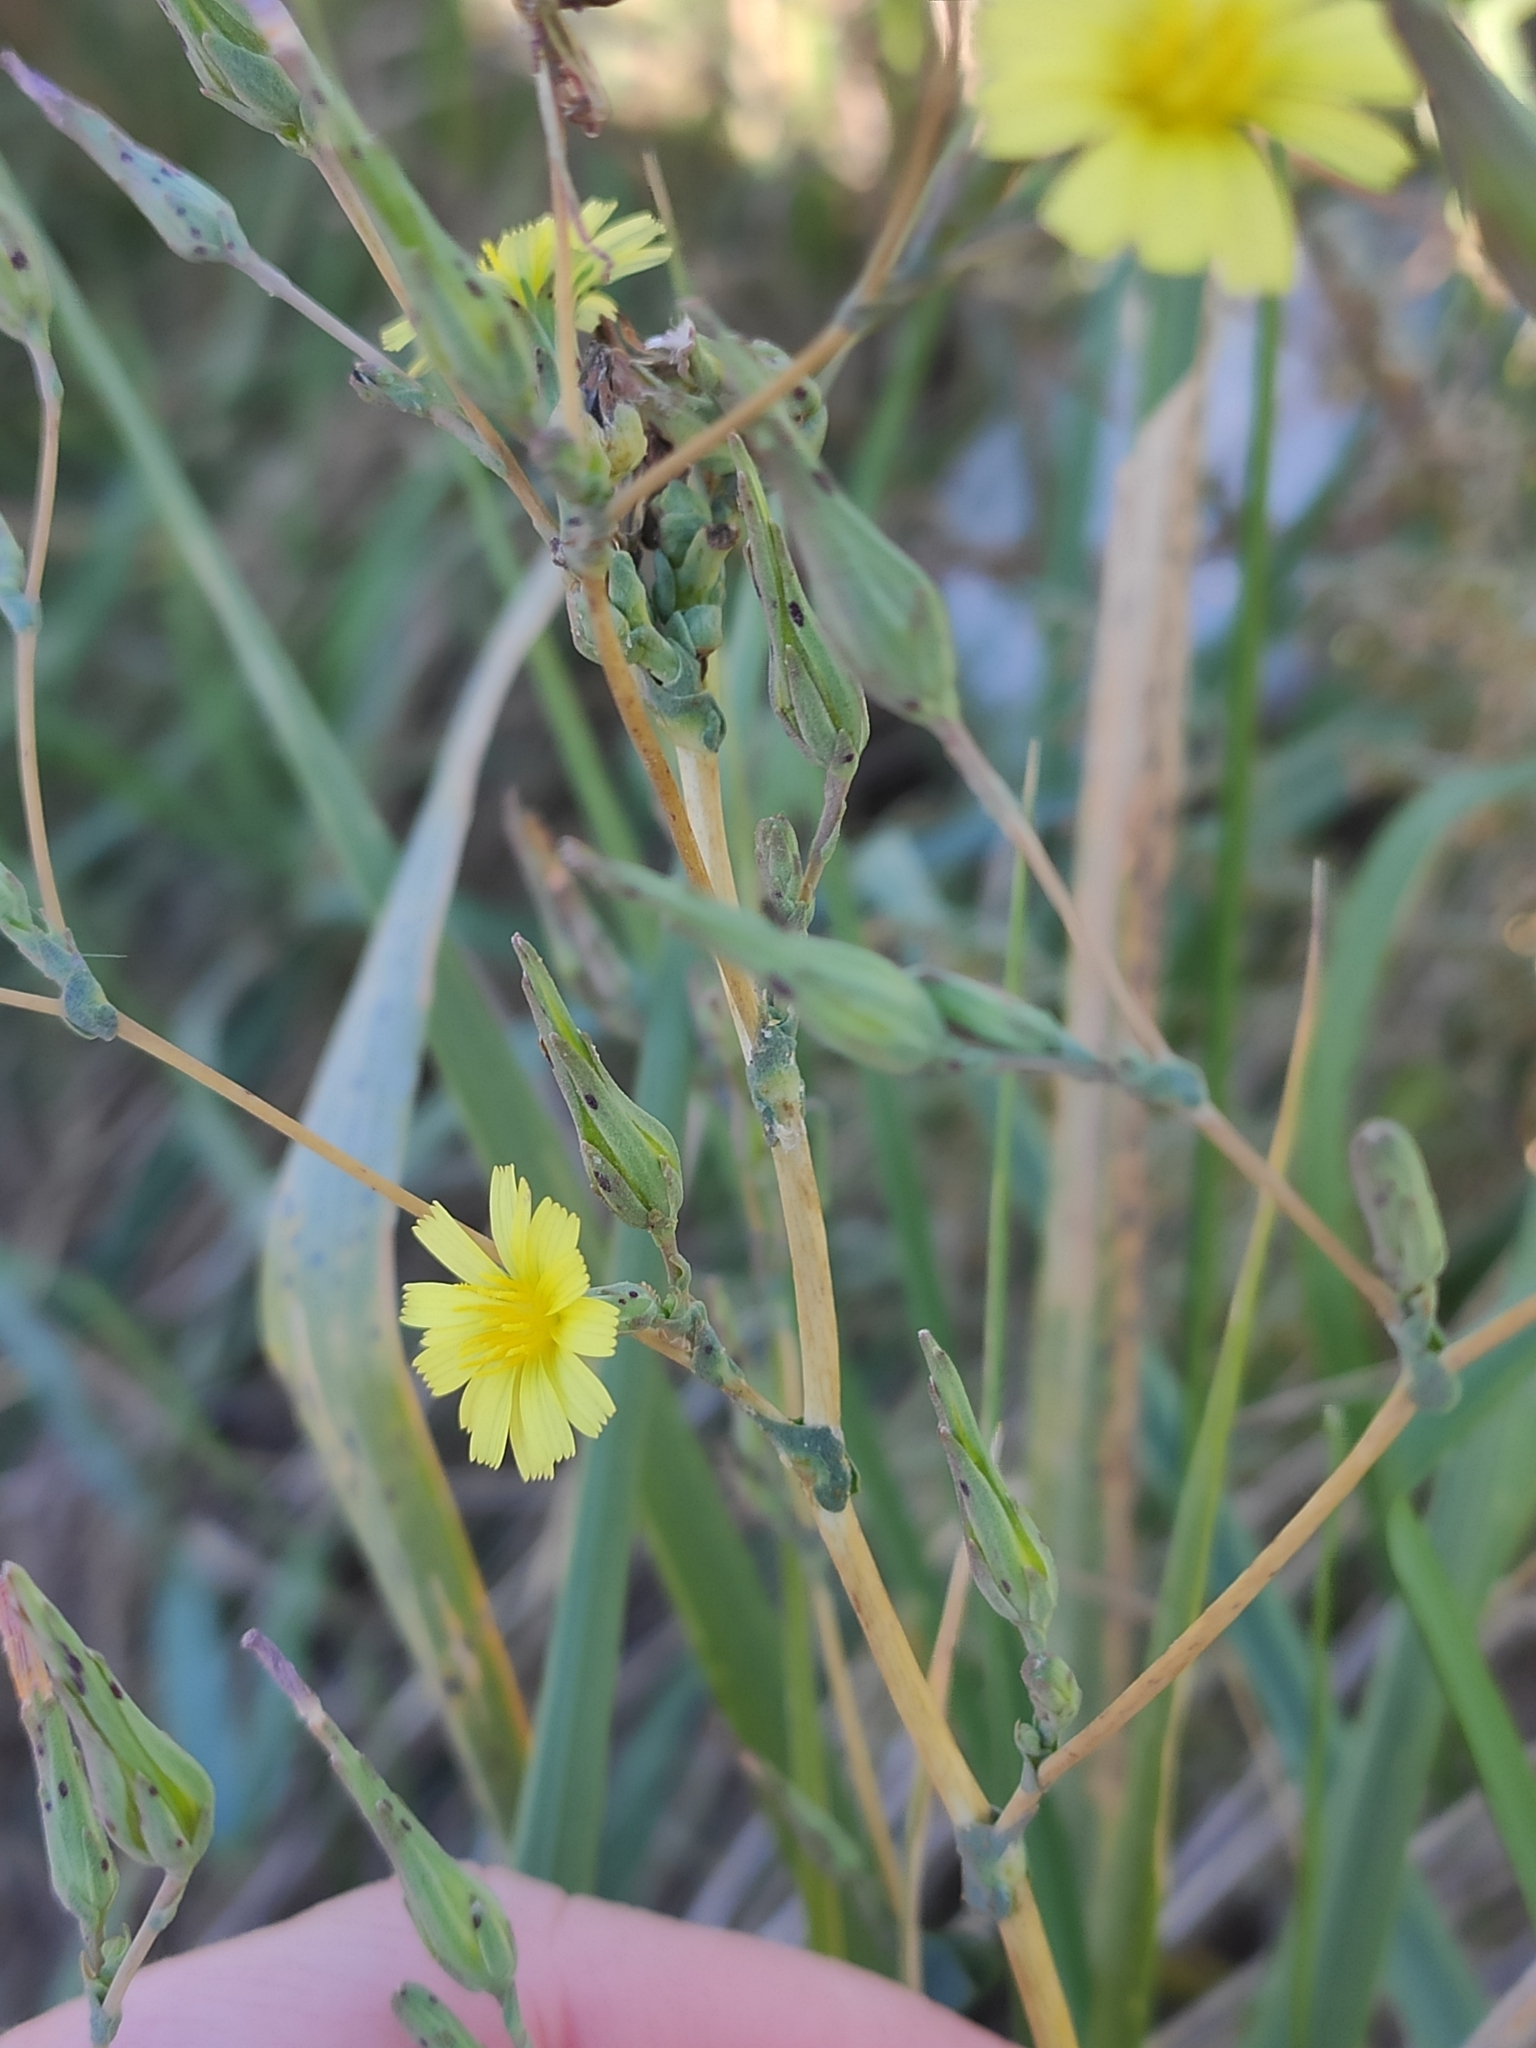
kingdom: Plantae
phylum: Tracheophyta
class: Magnoliopsida
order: Asterales
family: Asteraceae
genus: Lactuca
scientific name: Lactuca serriola
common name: Prickly lettuce
